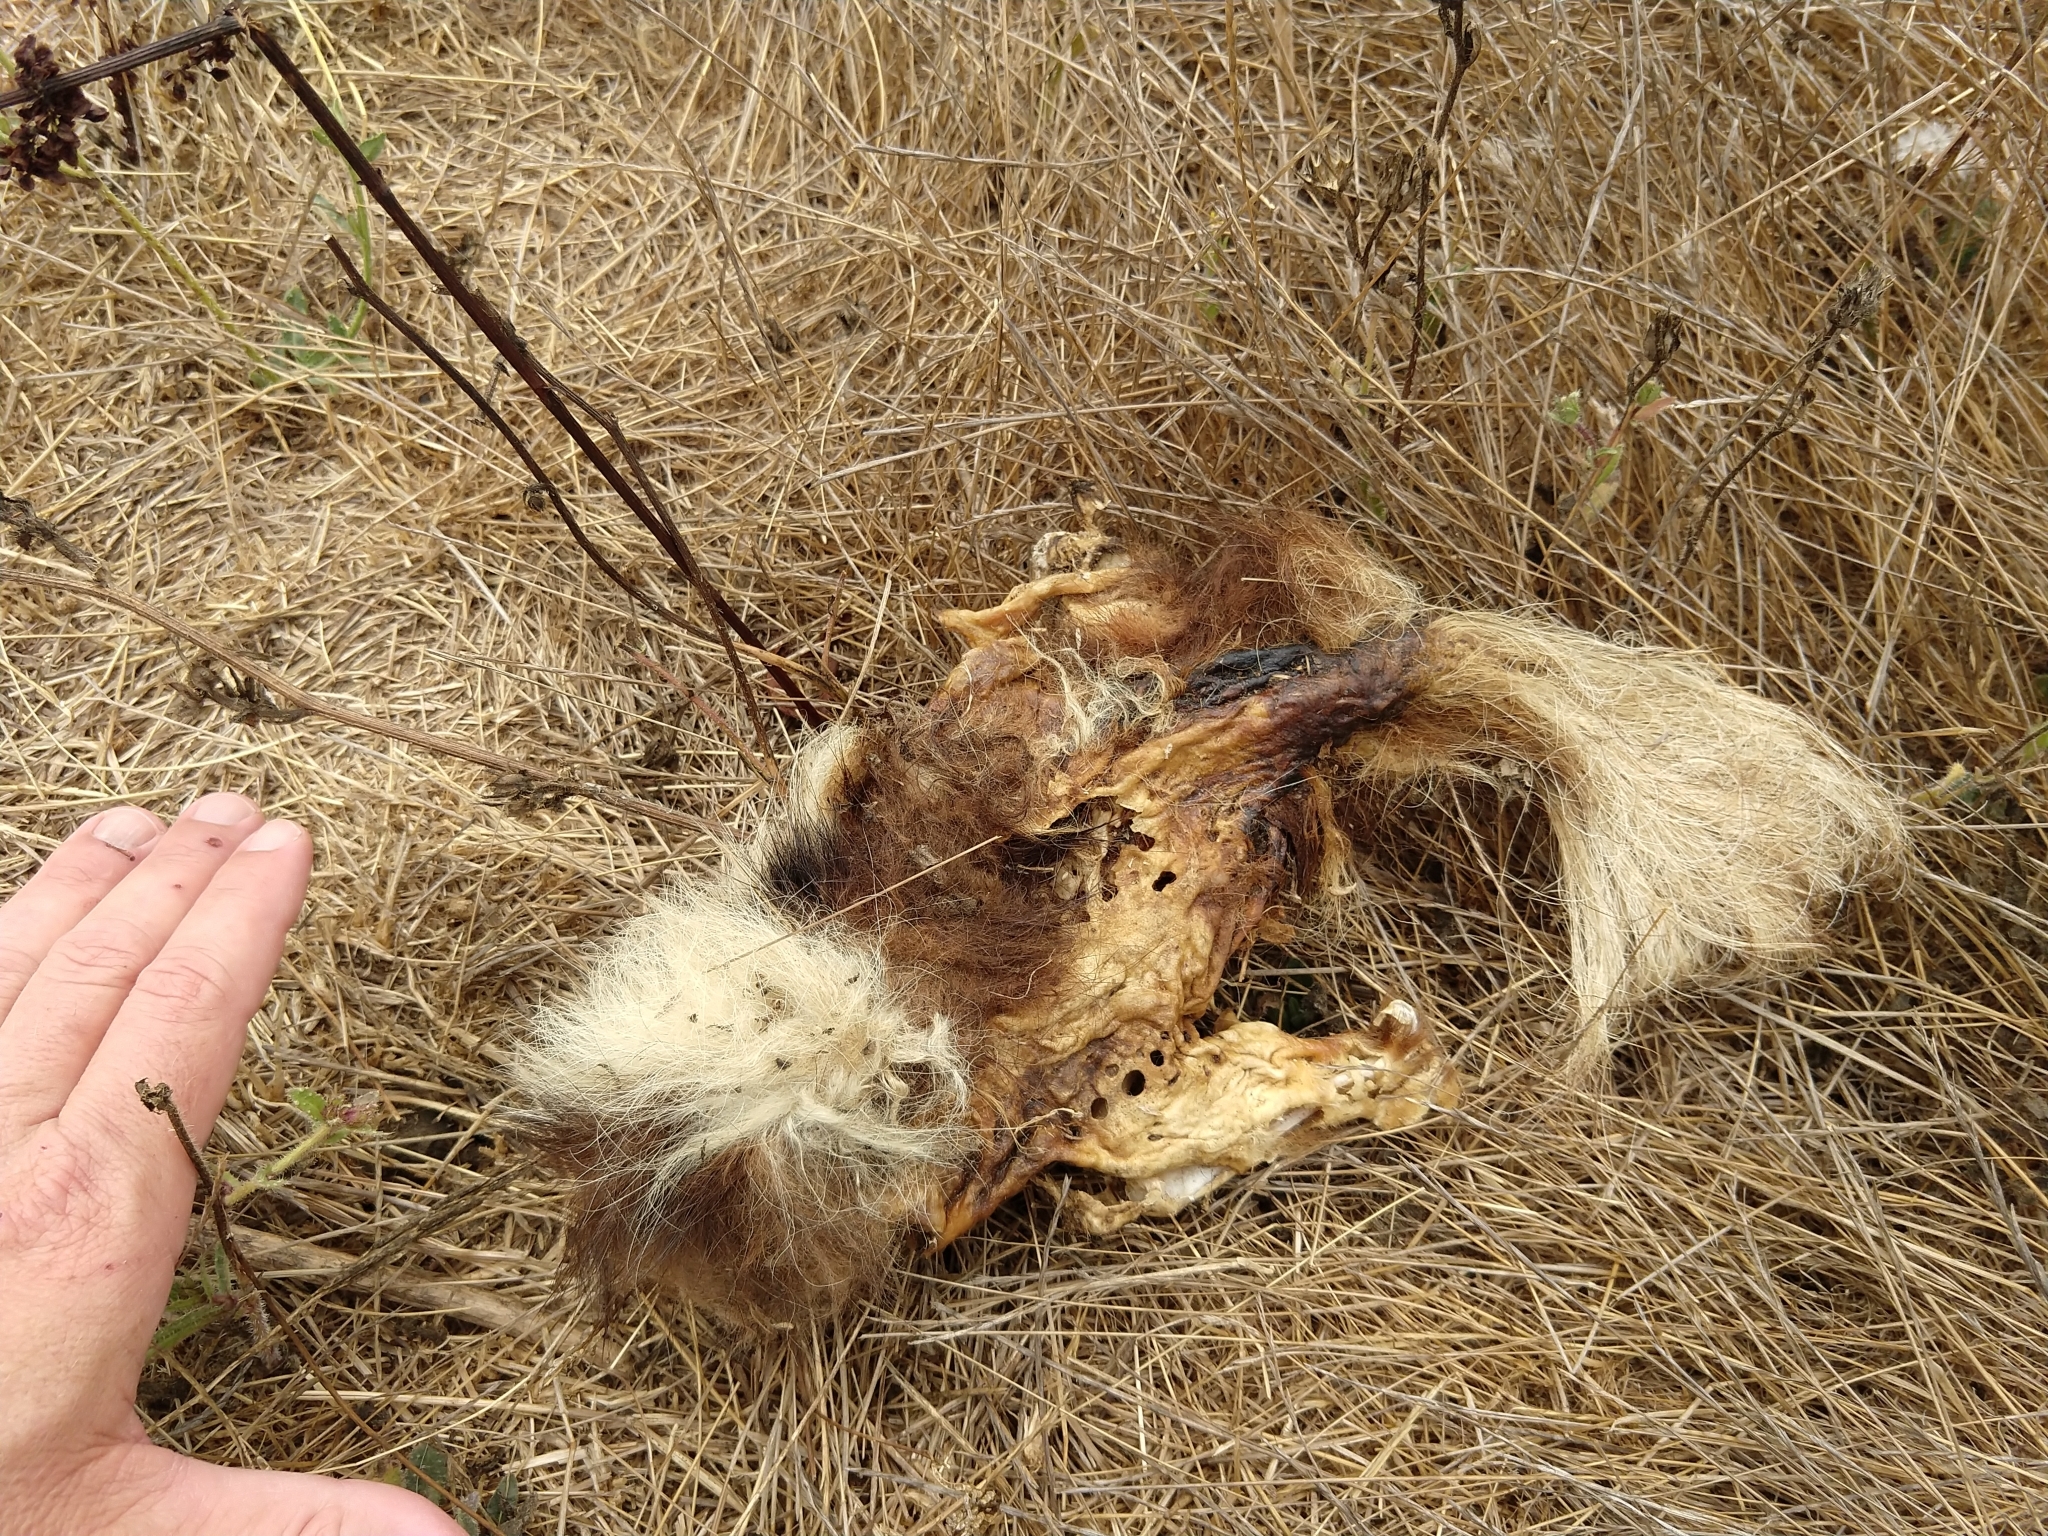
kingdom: Animalia
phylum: Chordata
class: Mammalia
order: Carnivora
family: Mephitidae
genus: Mephitis
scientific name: Mephitis mephitis
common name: Striped skunk
